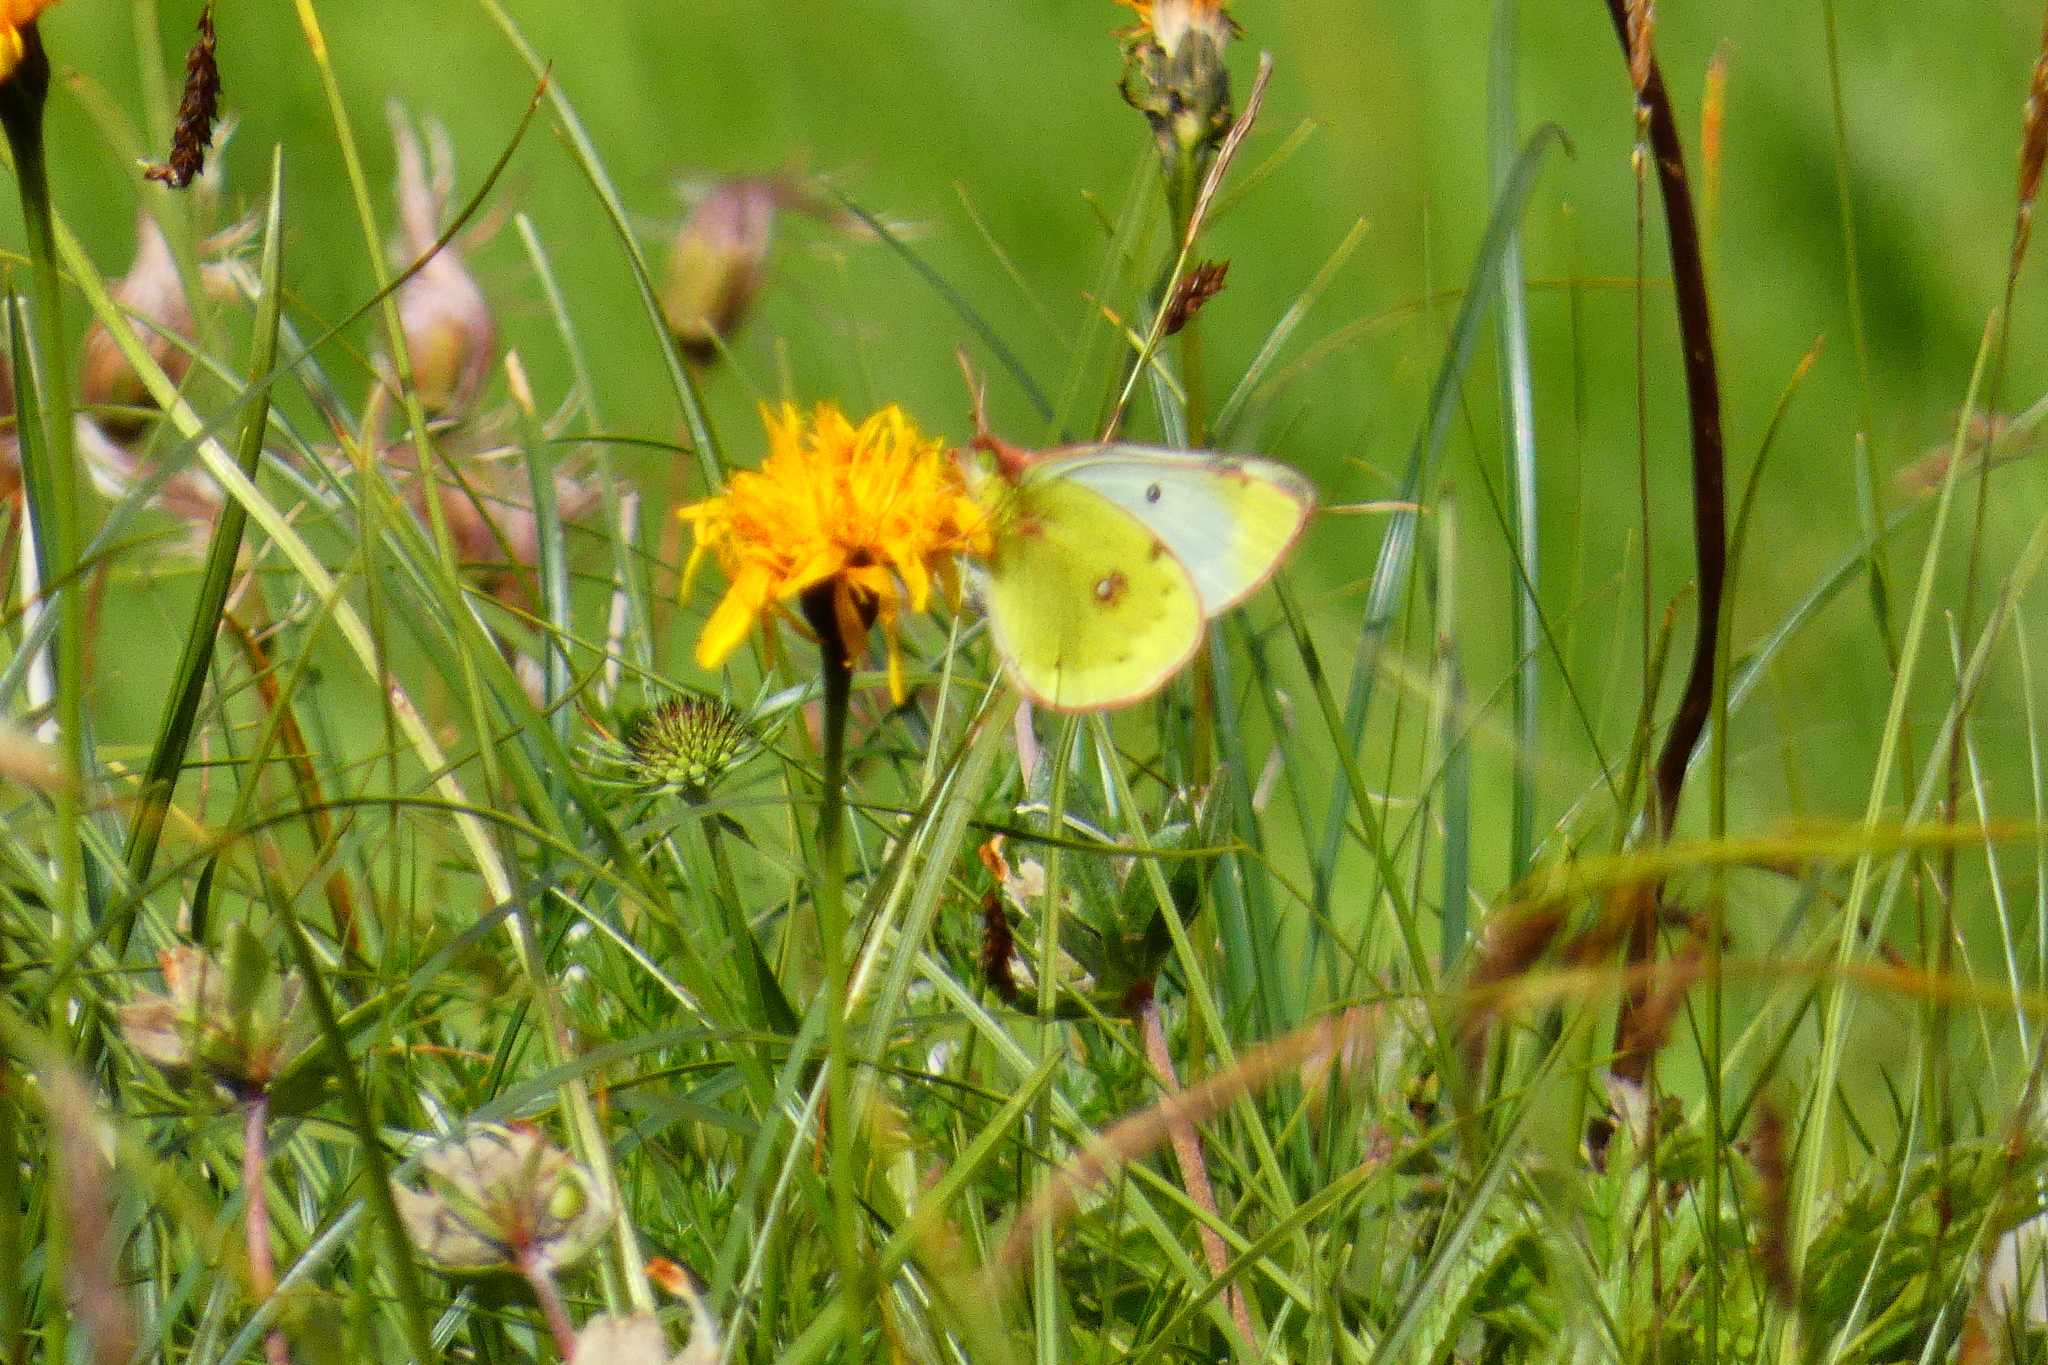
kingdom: Animalia
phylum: Arthropoda
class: Insecta
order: Lepidoptera
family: Pieridae
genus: Colias
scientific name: Colias phicomone
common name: Mountain clouded yellow
